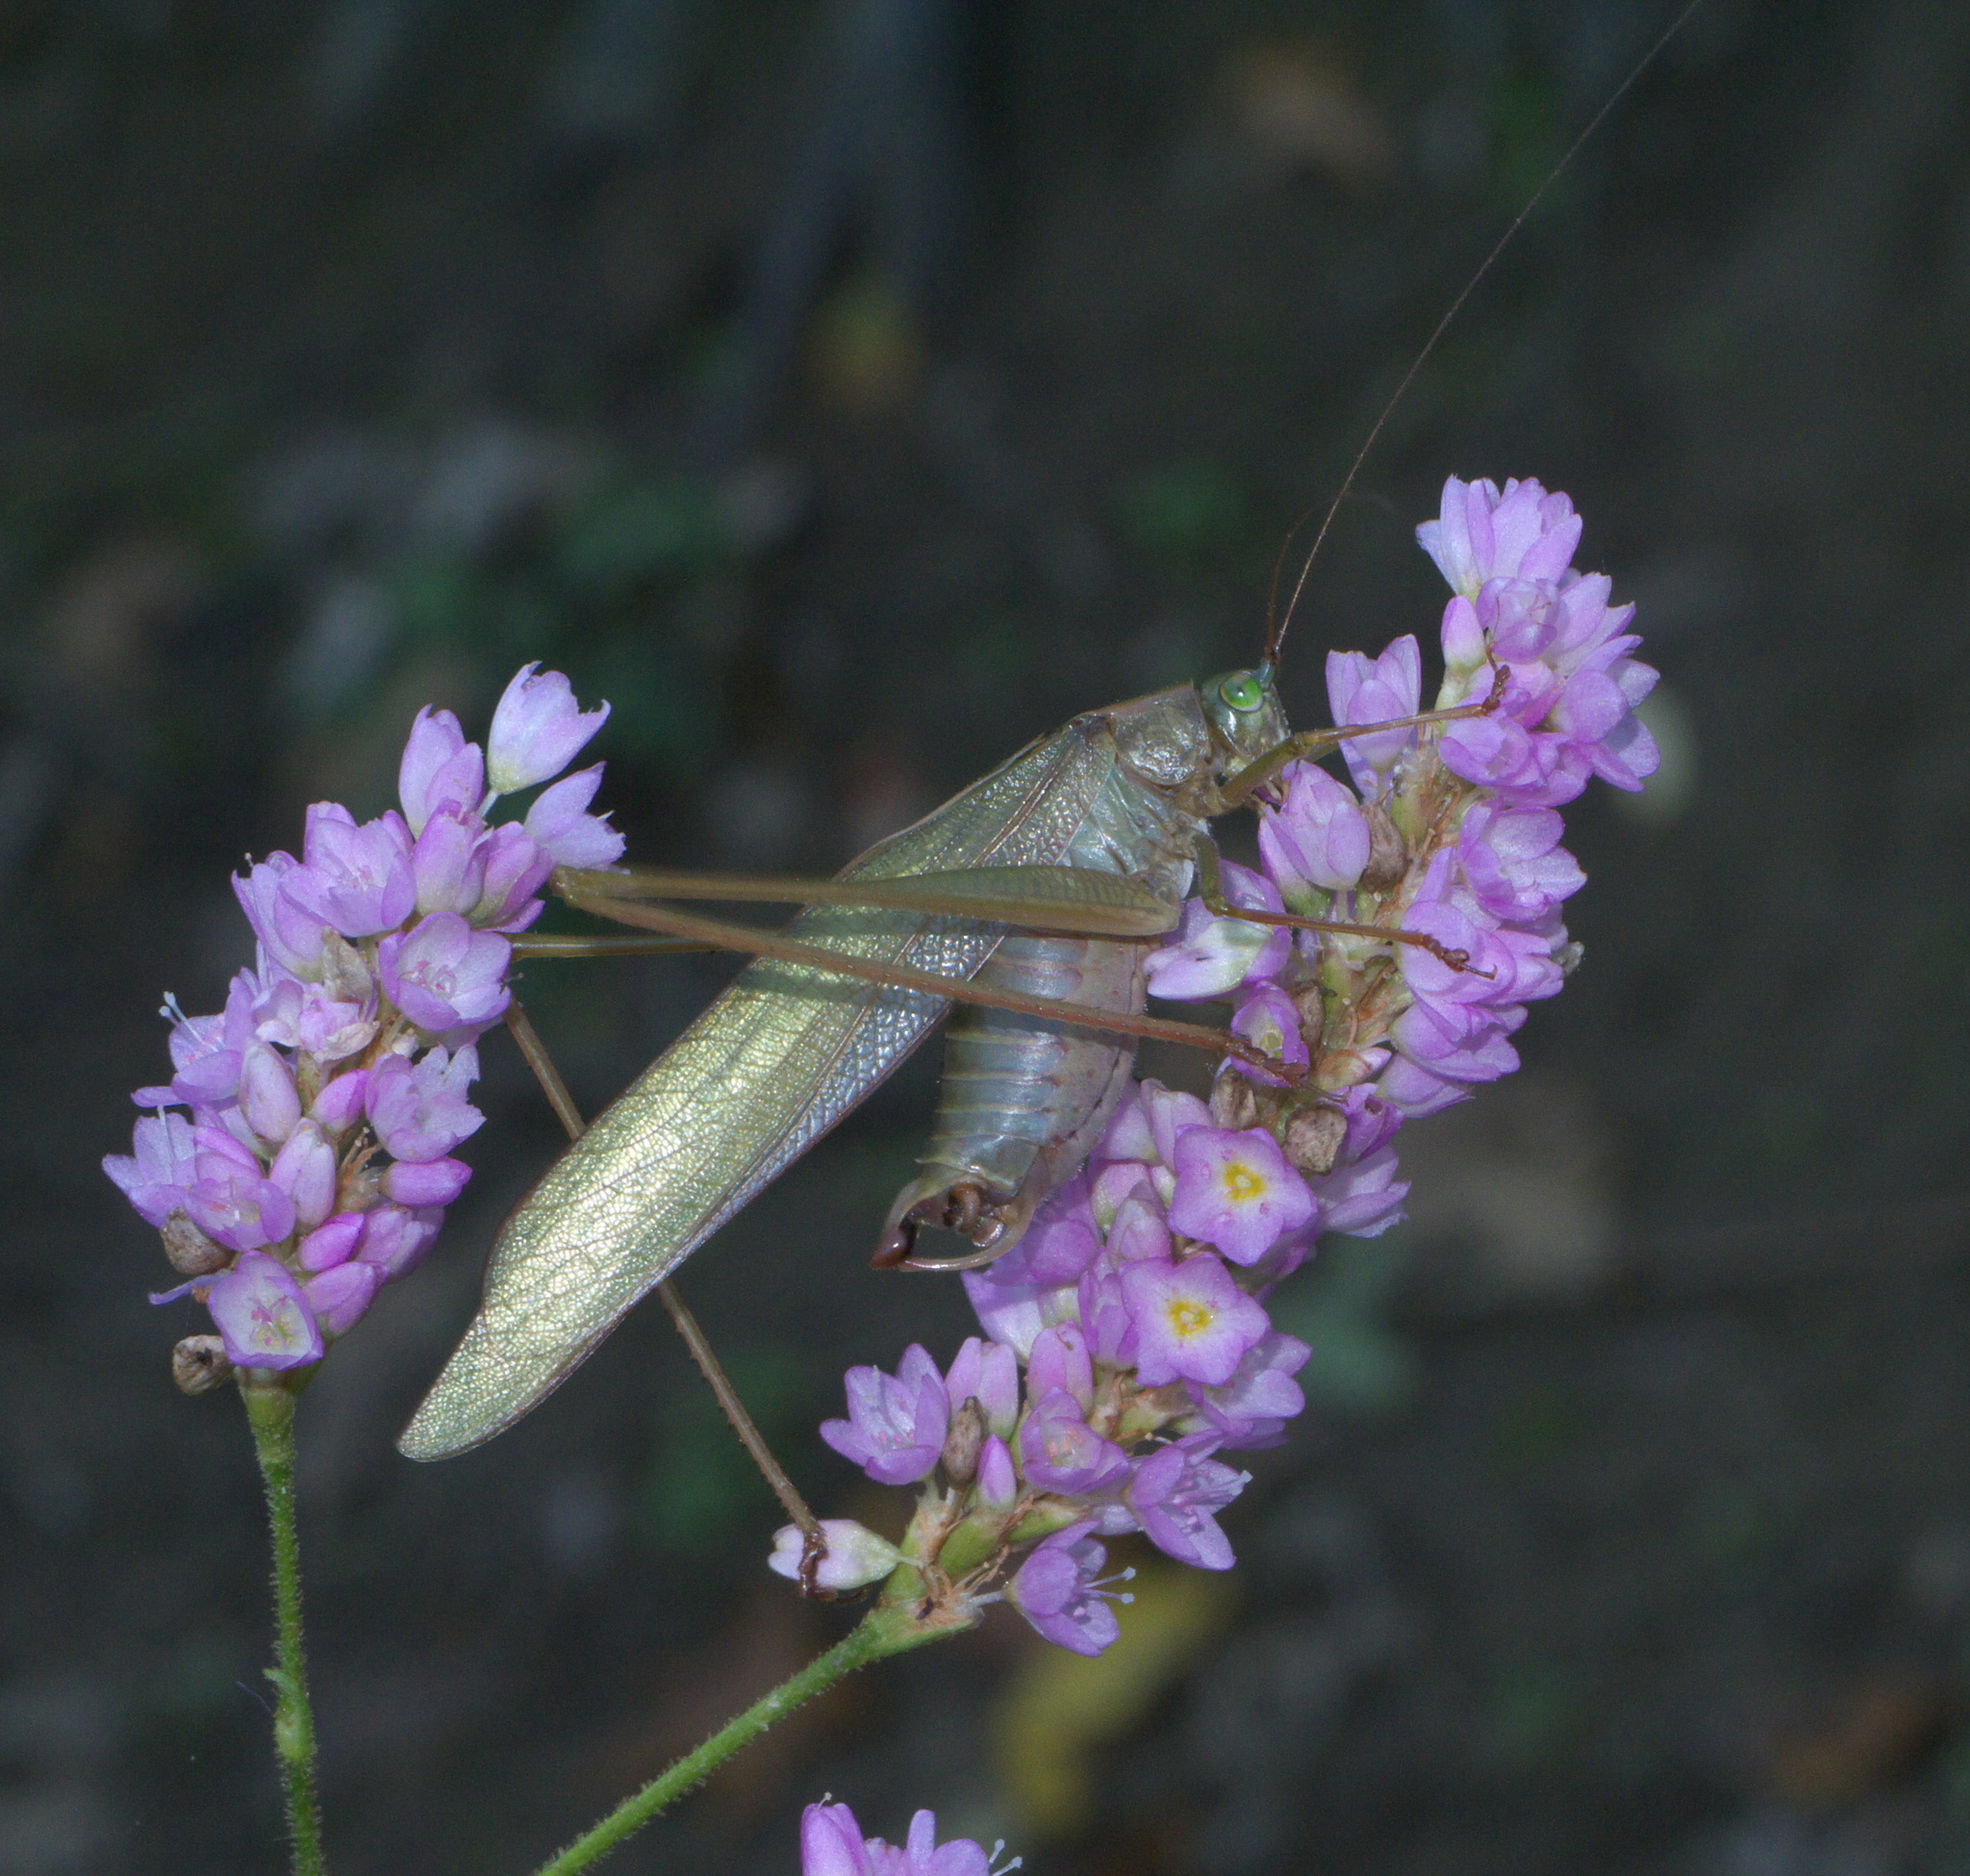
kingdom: Animalia
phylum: Arthropoda
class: Insecta
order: Orthoptera
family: Tettigoniidae
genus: Scudderia
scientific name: Scudderia furcata
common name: Fork-tailed bush katydid
